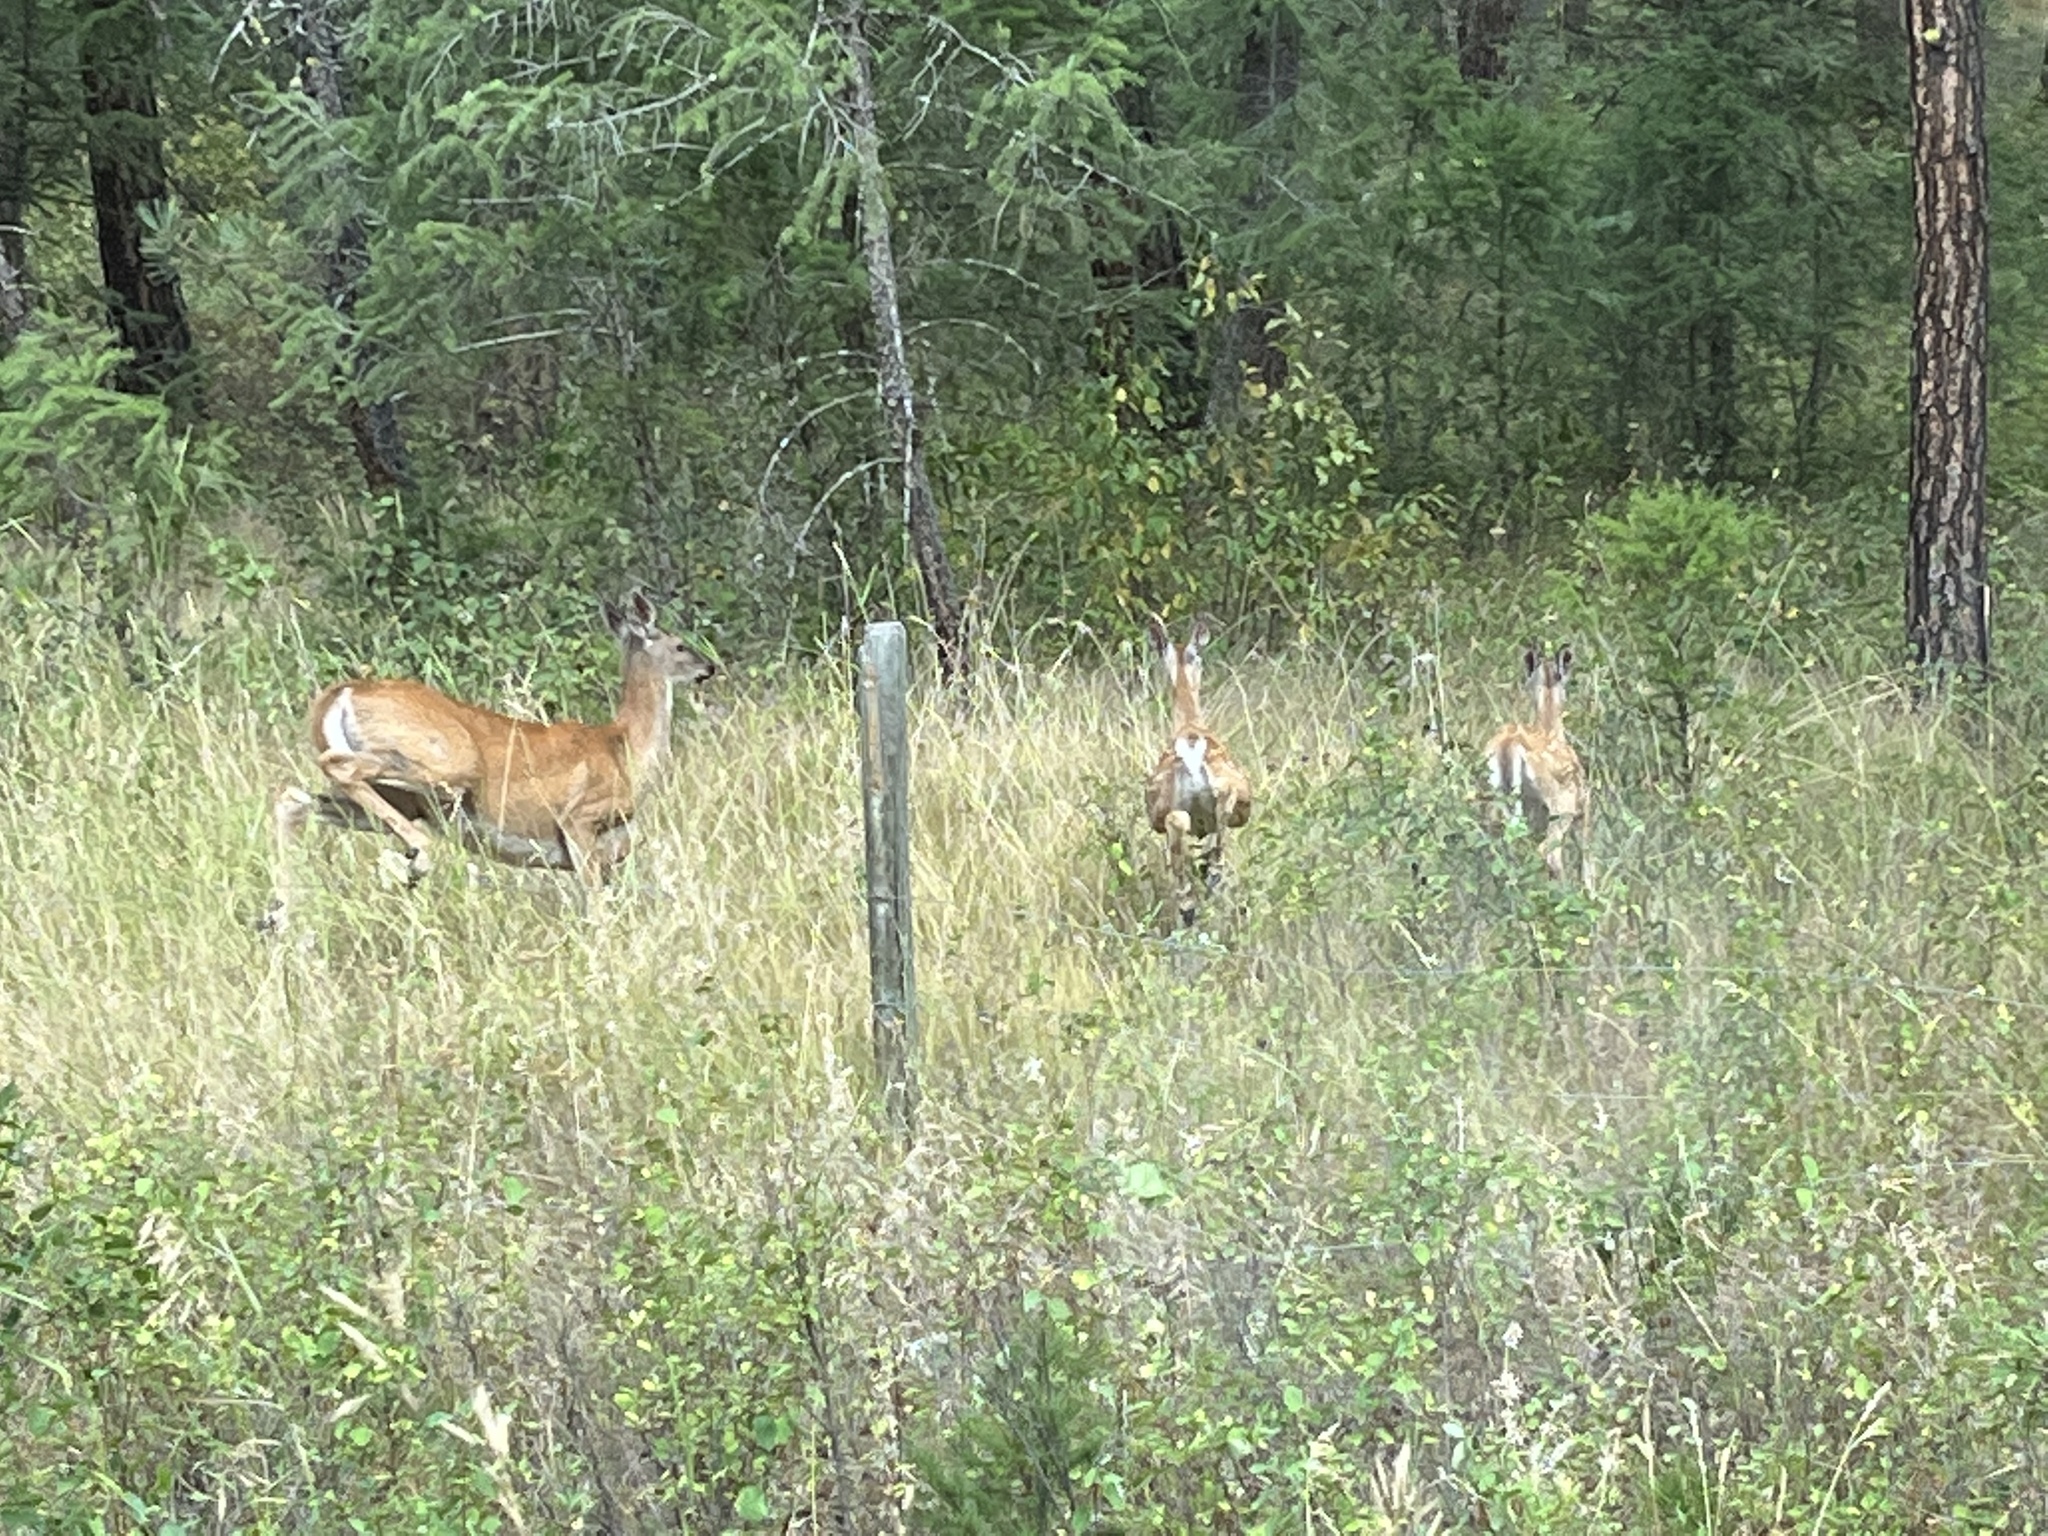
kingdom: Animalia
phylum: Chordata
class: Mammalia
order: Artiodactyla
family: Cervidae
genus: Odocoileus
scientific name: Odocoileus virginianus
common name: White-tailed deer
